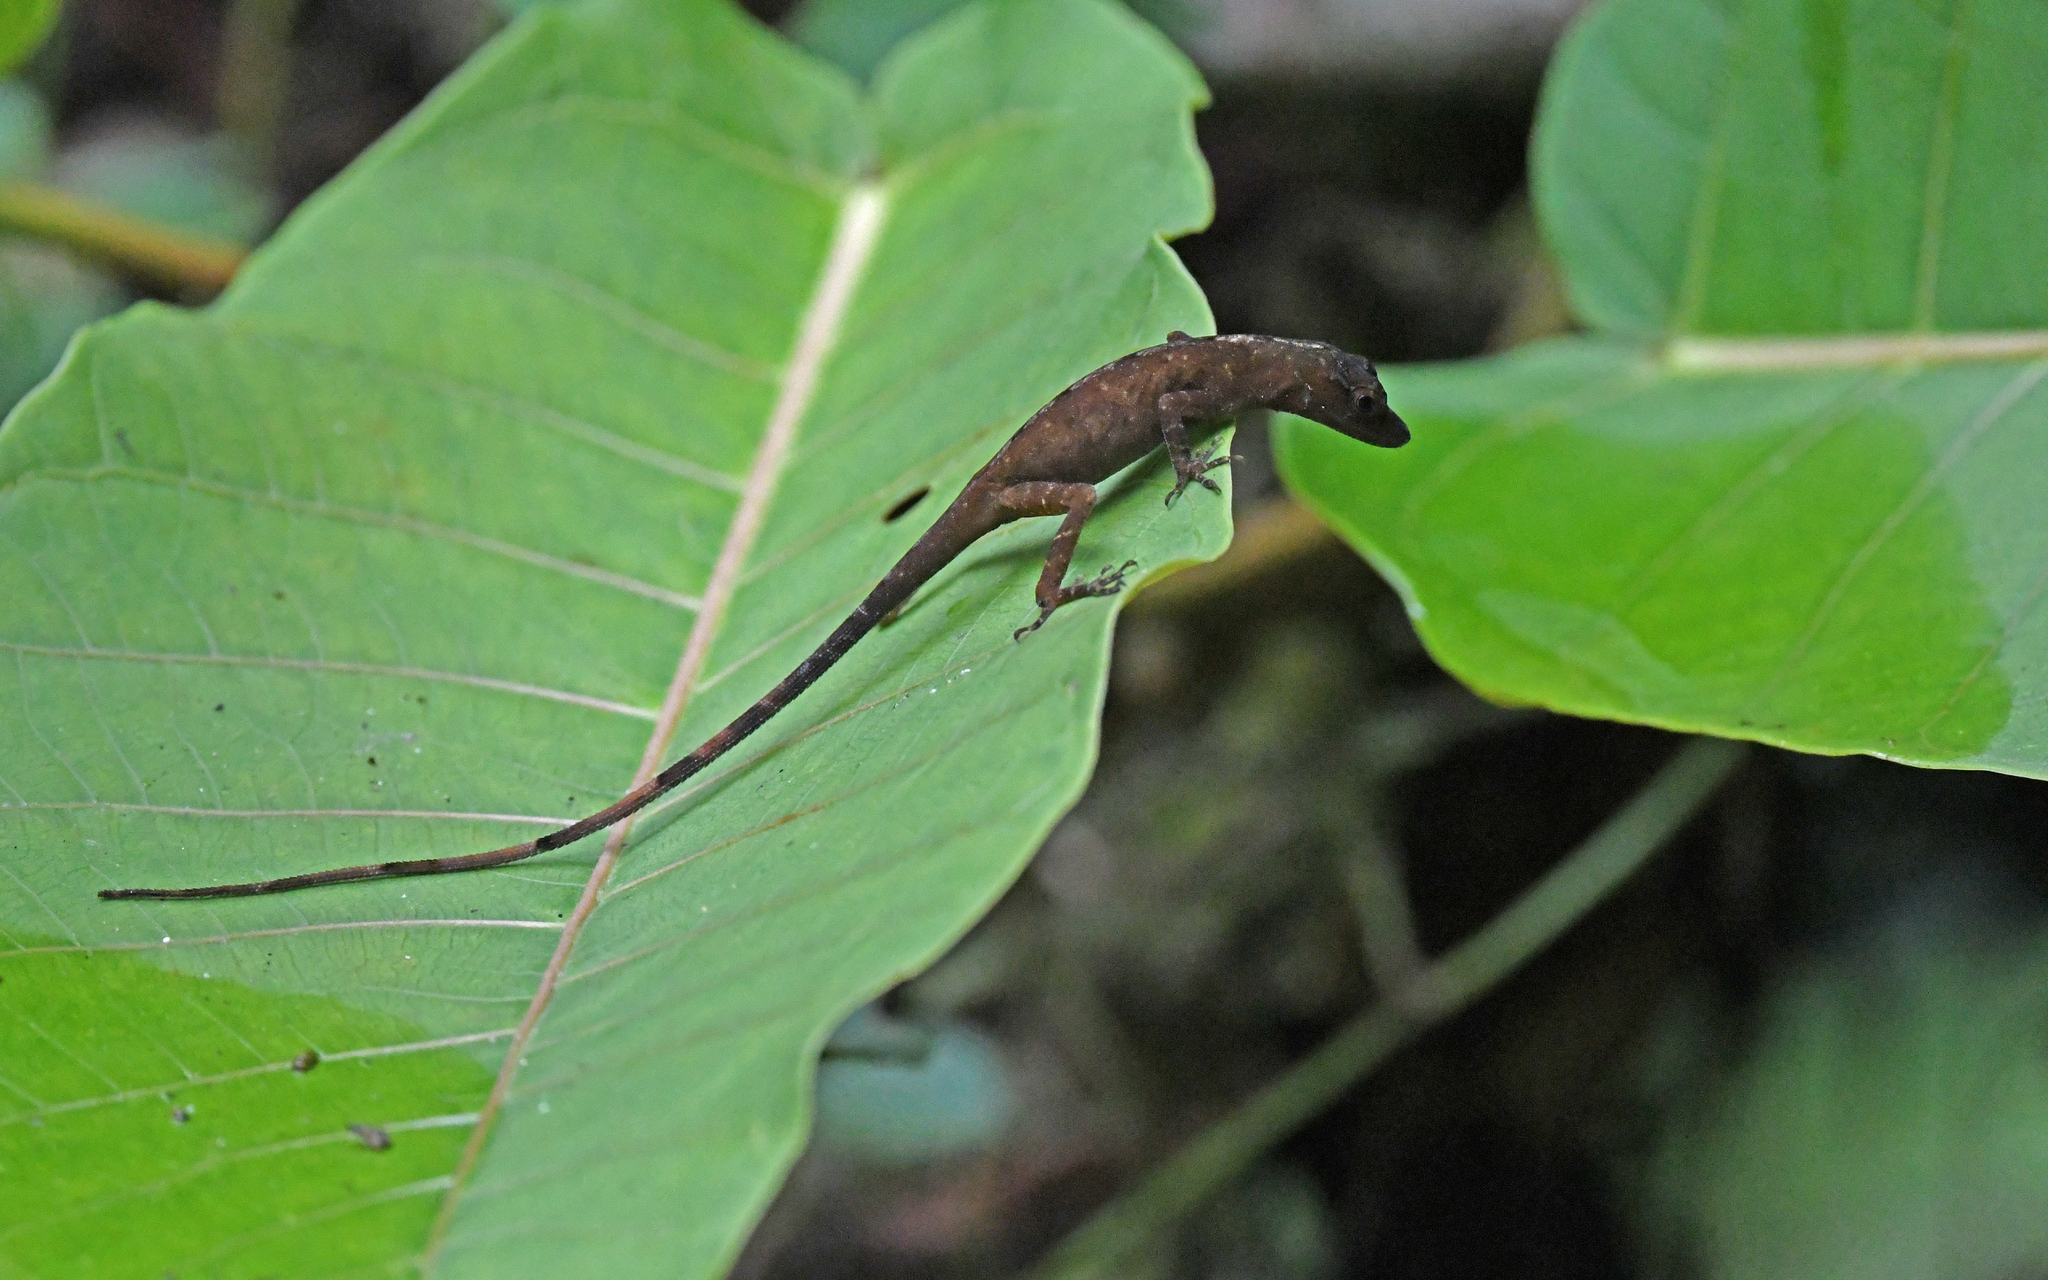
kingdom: Animalia
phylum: Chordata
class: Squamata
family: Dactyloidae
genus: Anolis
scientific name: Anolis maculiventris
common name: Blotchbelly anole
